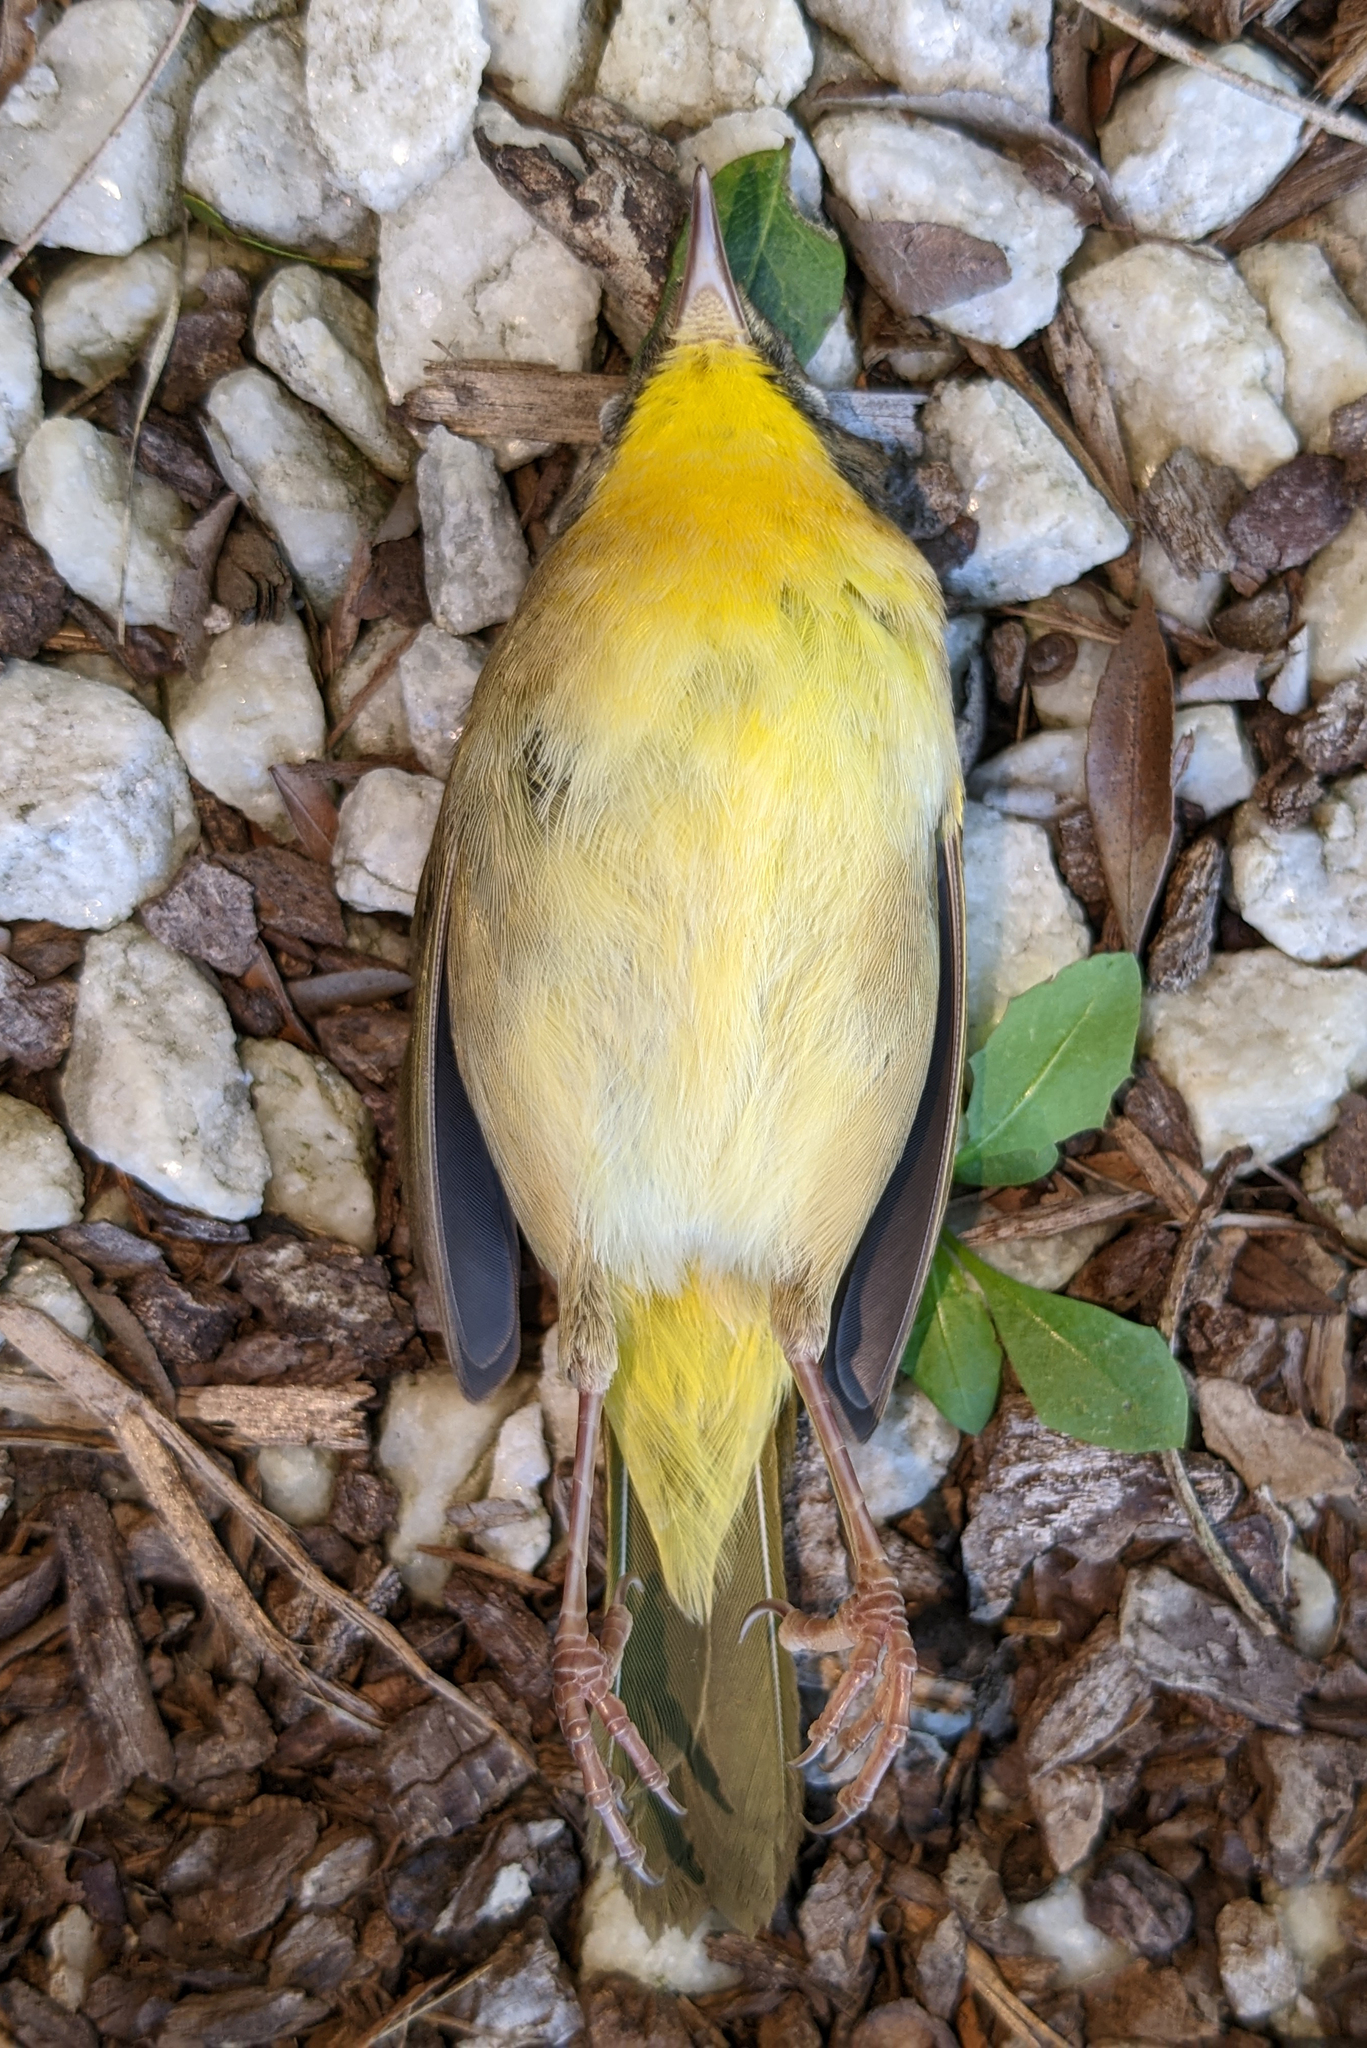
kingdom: Animalia
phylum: Chordata
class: Aves
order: Passeriformes
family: Parulidae
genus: Geothlypis
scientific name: Geothlypis trichas
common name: Common yellowthroat
